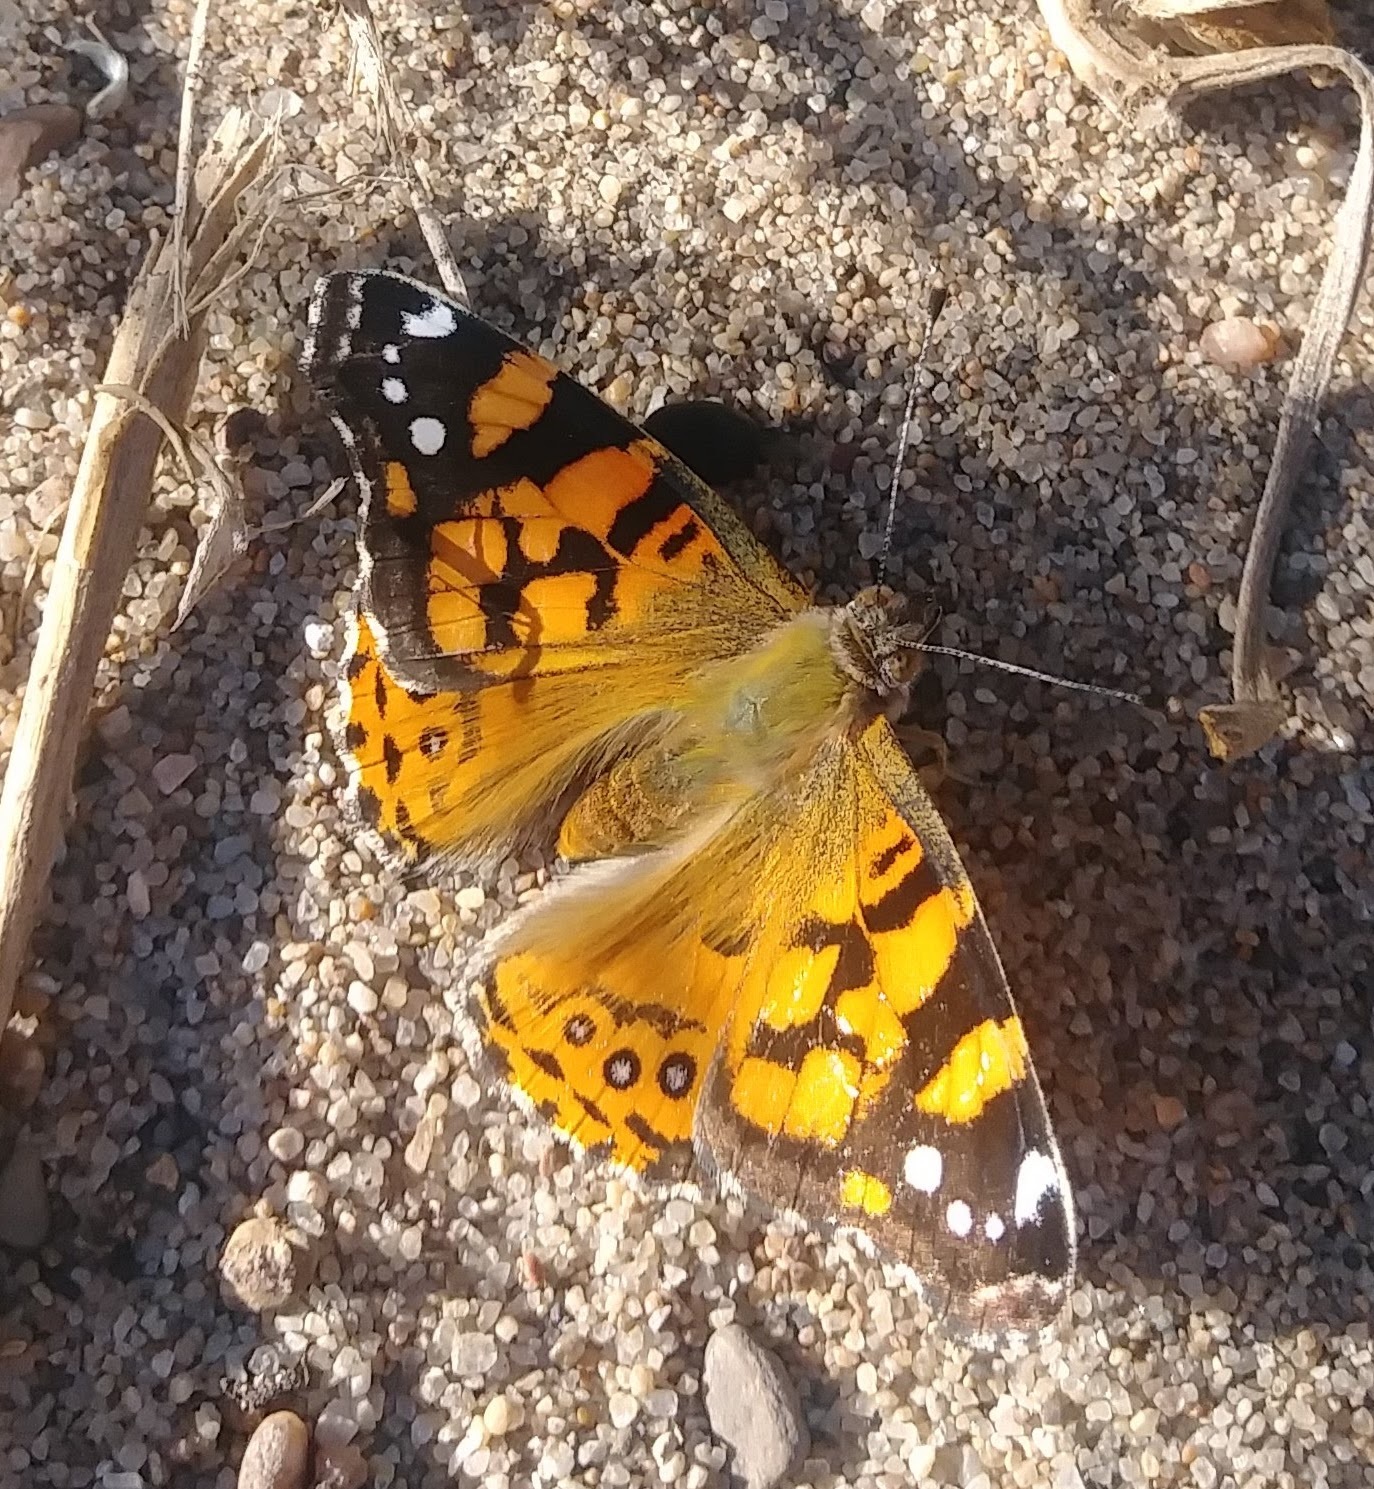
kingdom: Animalia
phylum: Arthropoda
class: Insecta
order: Lepidoptera
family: Nymphalidae
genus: Vanessa
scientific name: Vanessa annabella
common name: West coast lady
